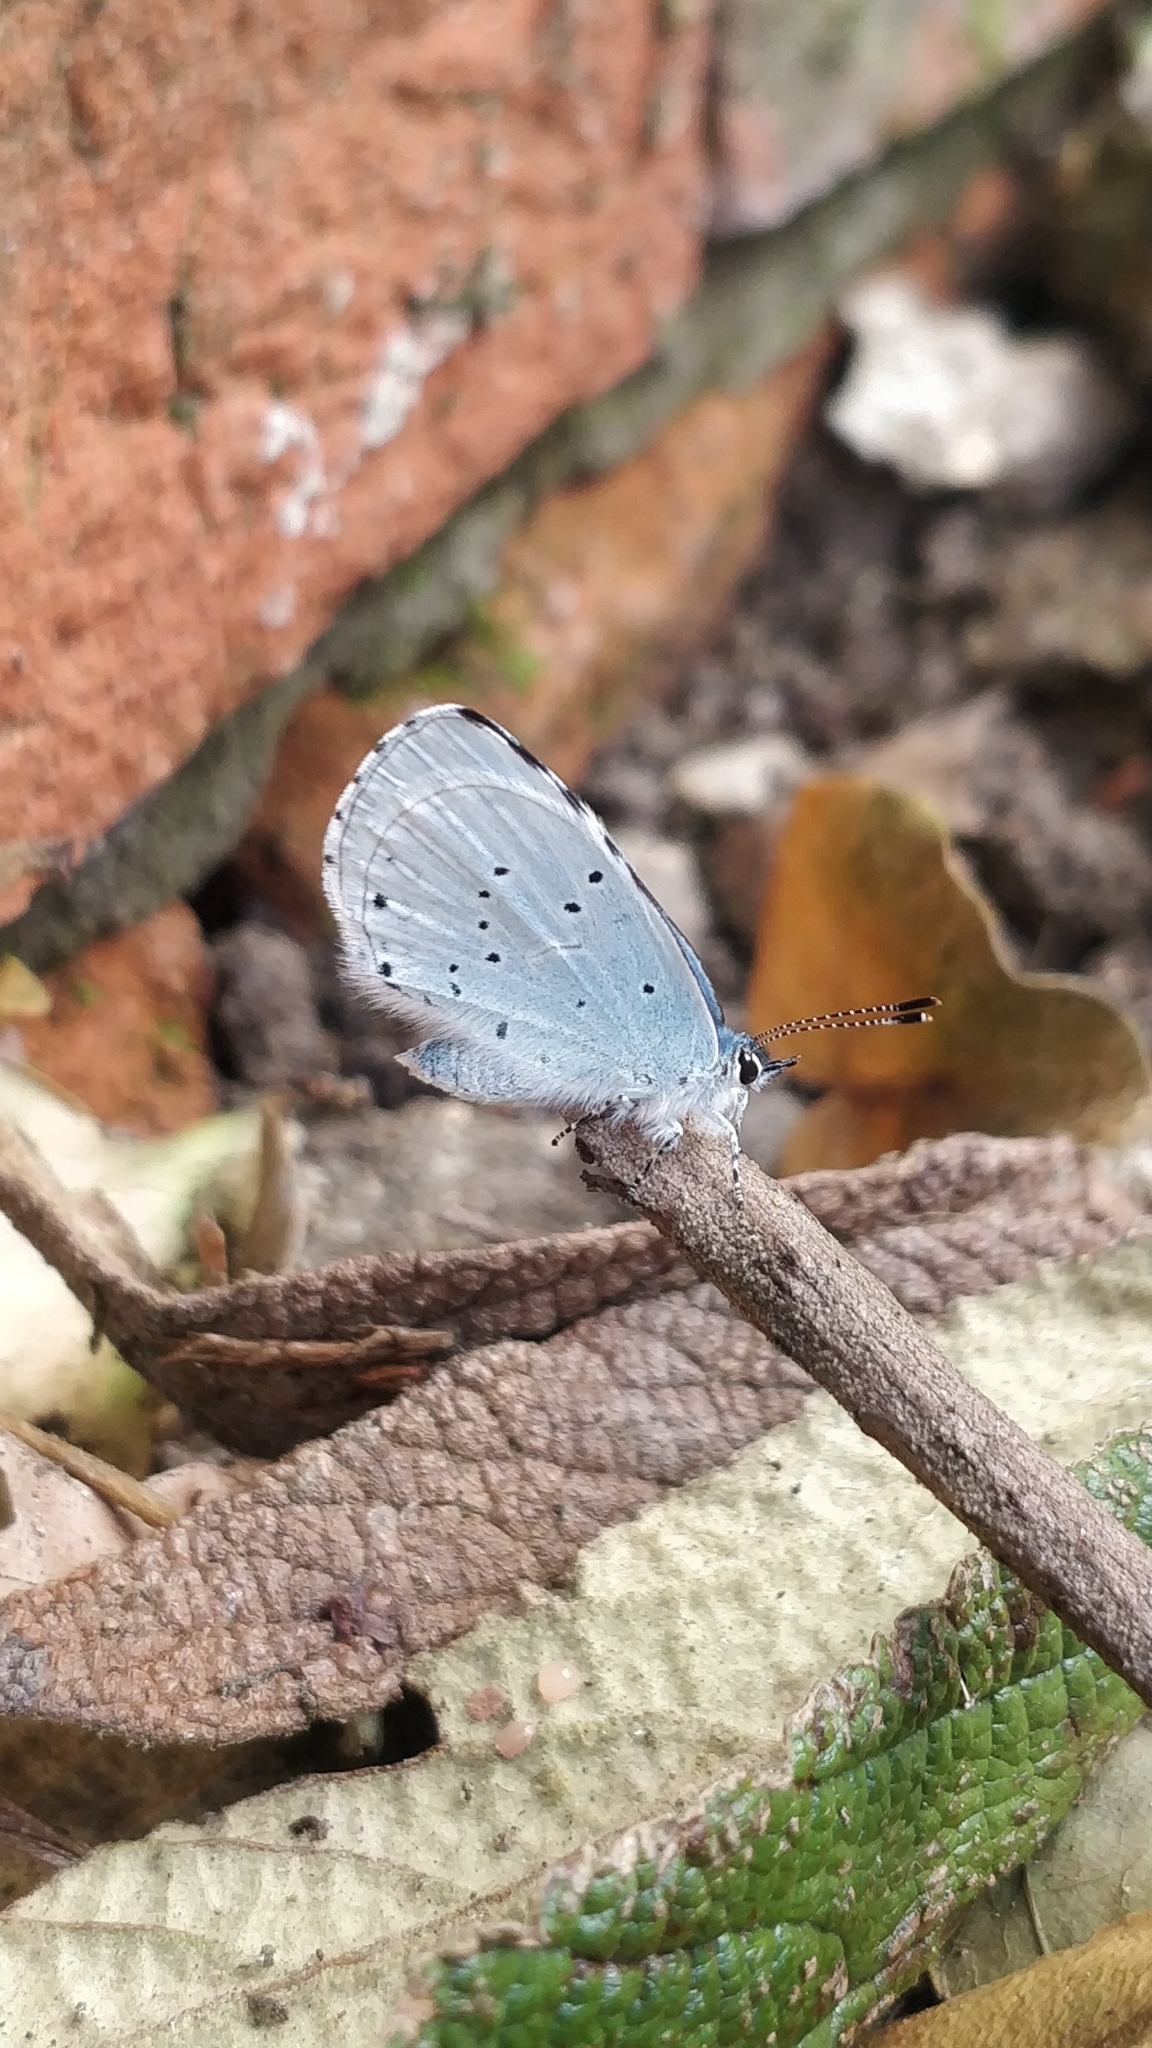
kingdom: Animalia
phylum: Arthropoda
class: Insecta
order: Lepidoptera
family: Lycaenidae
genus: Celastrina
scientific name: Celastrina argiolus
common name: Holly blue
